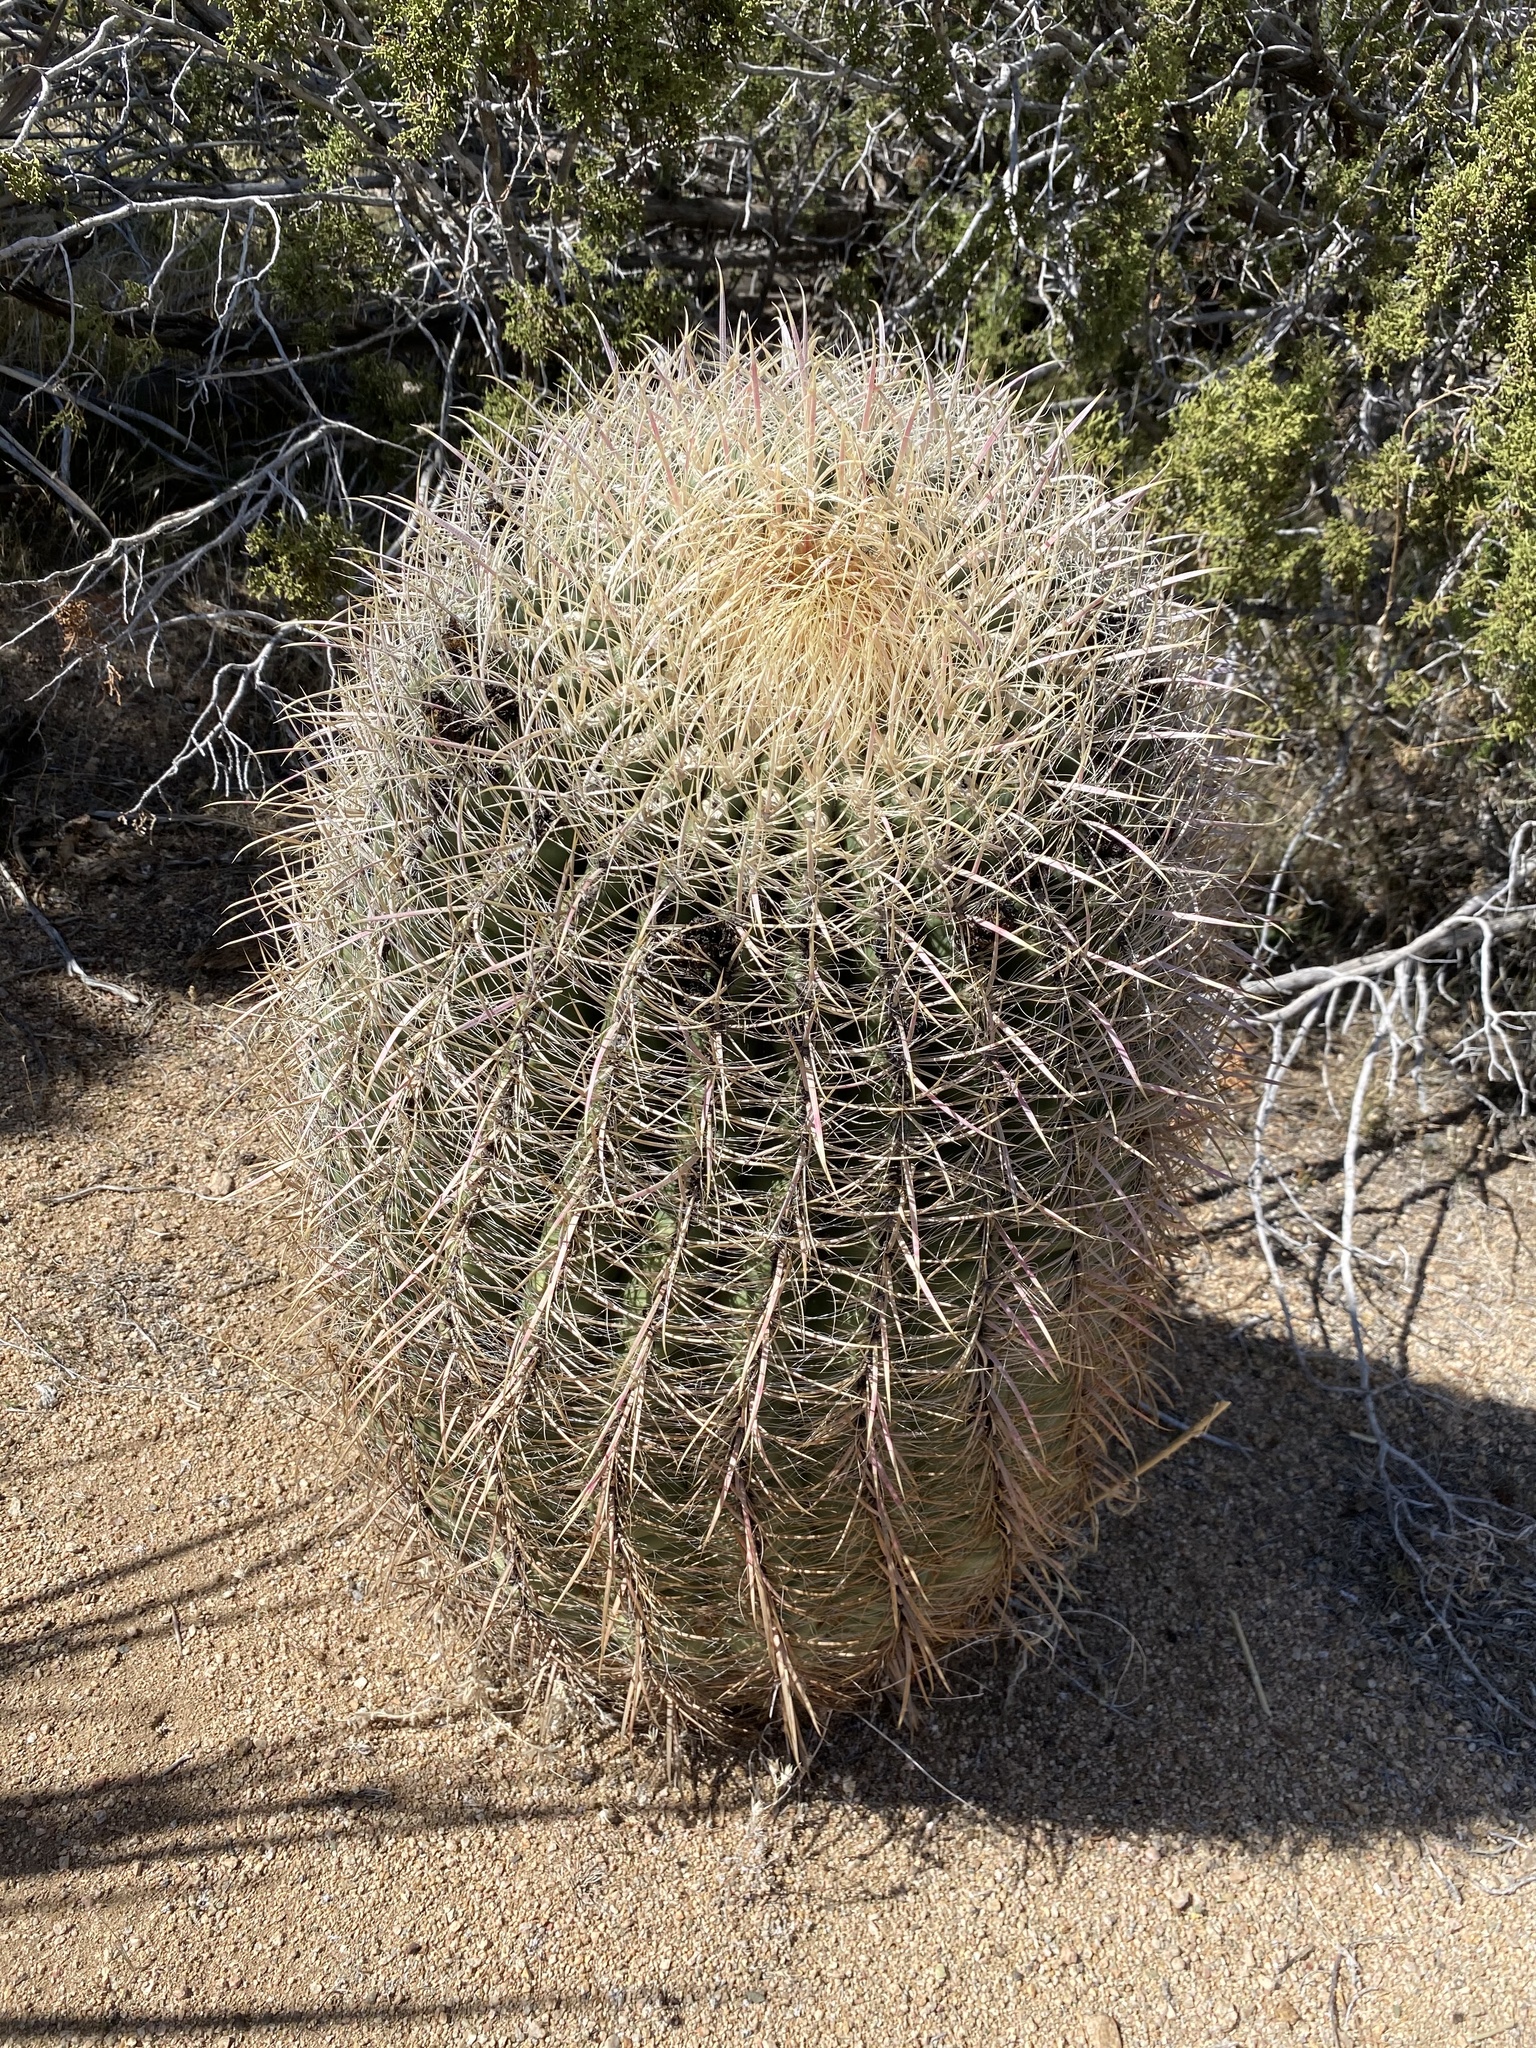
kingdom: Plantae
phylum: Tracheophyta
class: Magnoliopsida
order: Caryophyllales
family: Cactaceae
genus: Ferocactus
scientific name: Ferocactus cylindraceus
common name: California barrel cactus
